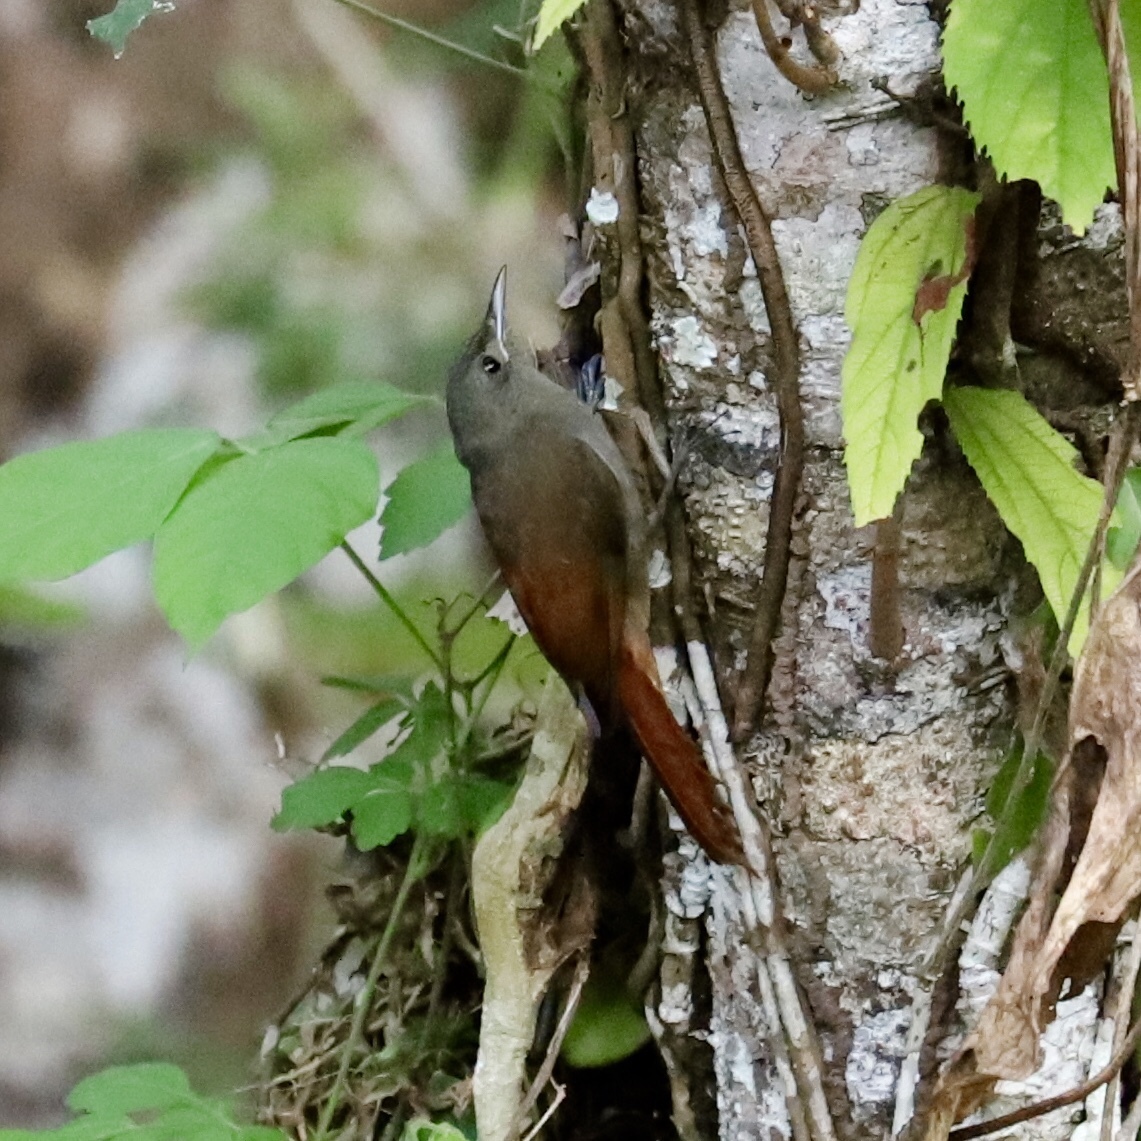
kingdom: Animalia
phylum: Chordata
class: Aves
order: Passeriformes
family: Furnariidae
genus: Sittasomus
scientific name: Sittasomus griseicapillus
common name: Olivaceous woodcreeper
